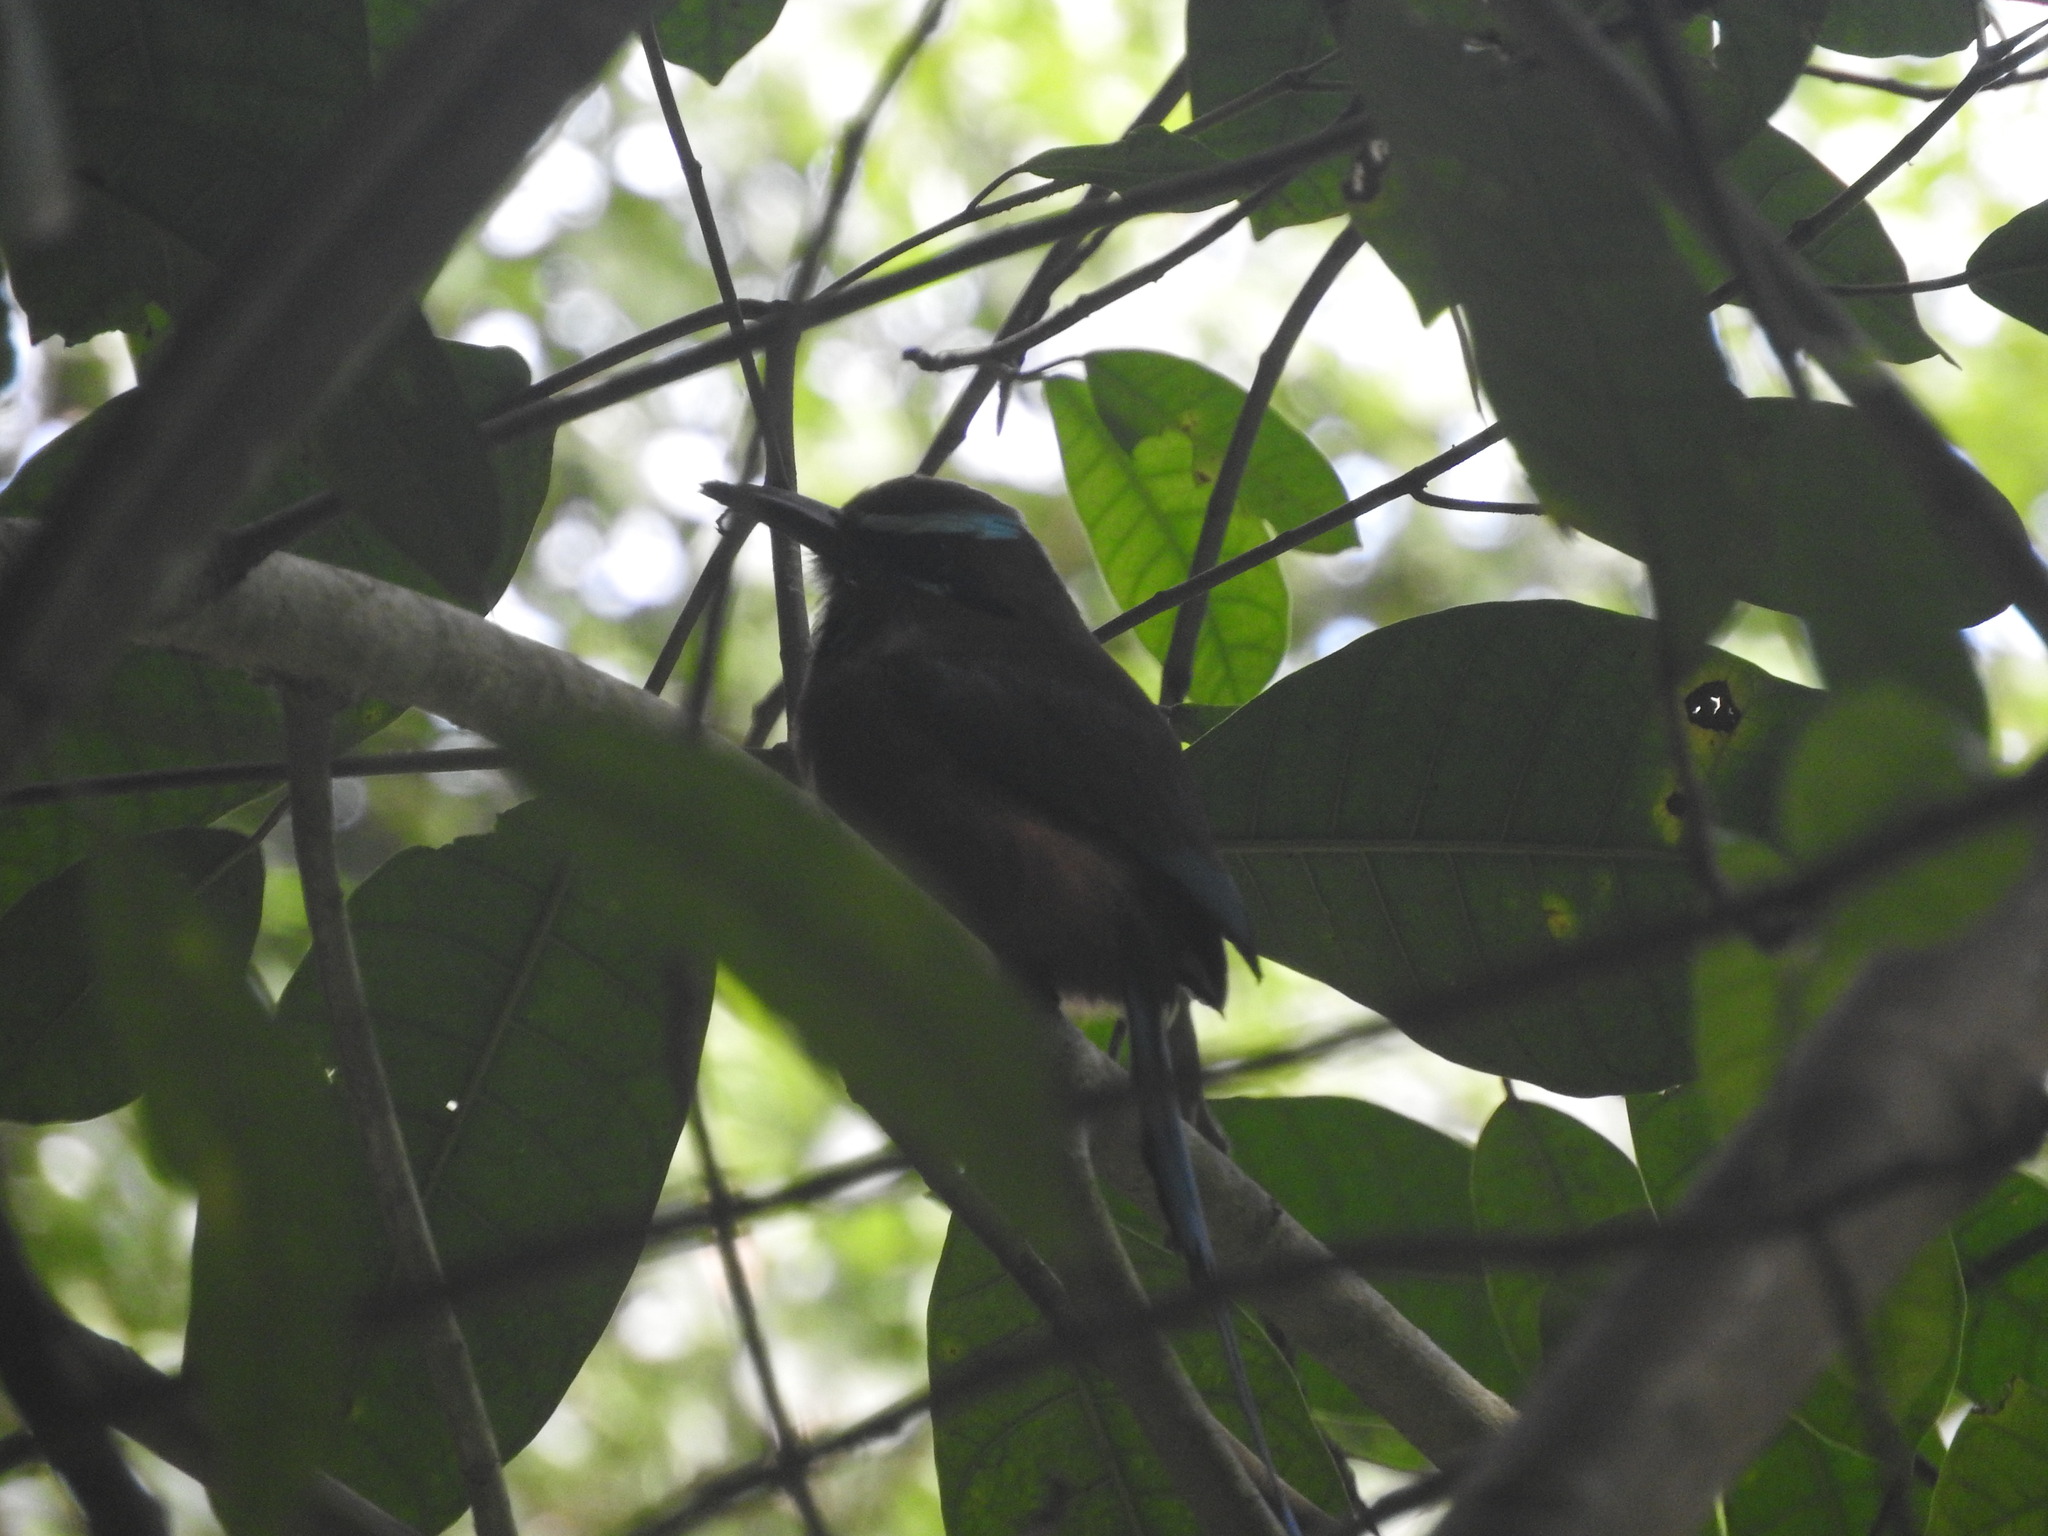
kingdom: Animalia
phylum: Chordata
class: Aves
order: Coraciiformes
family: Momotidae
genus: Eumomota
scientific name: Eumomota superciliosa
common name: Turquoise-browed motmot
